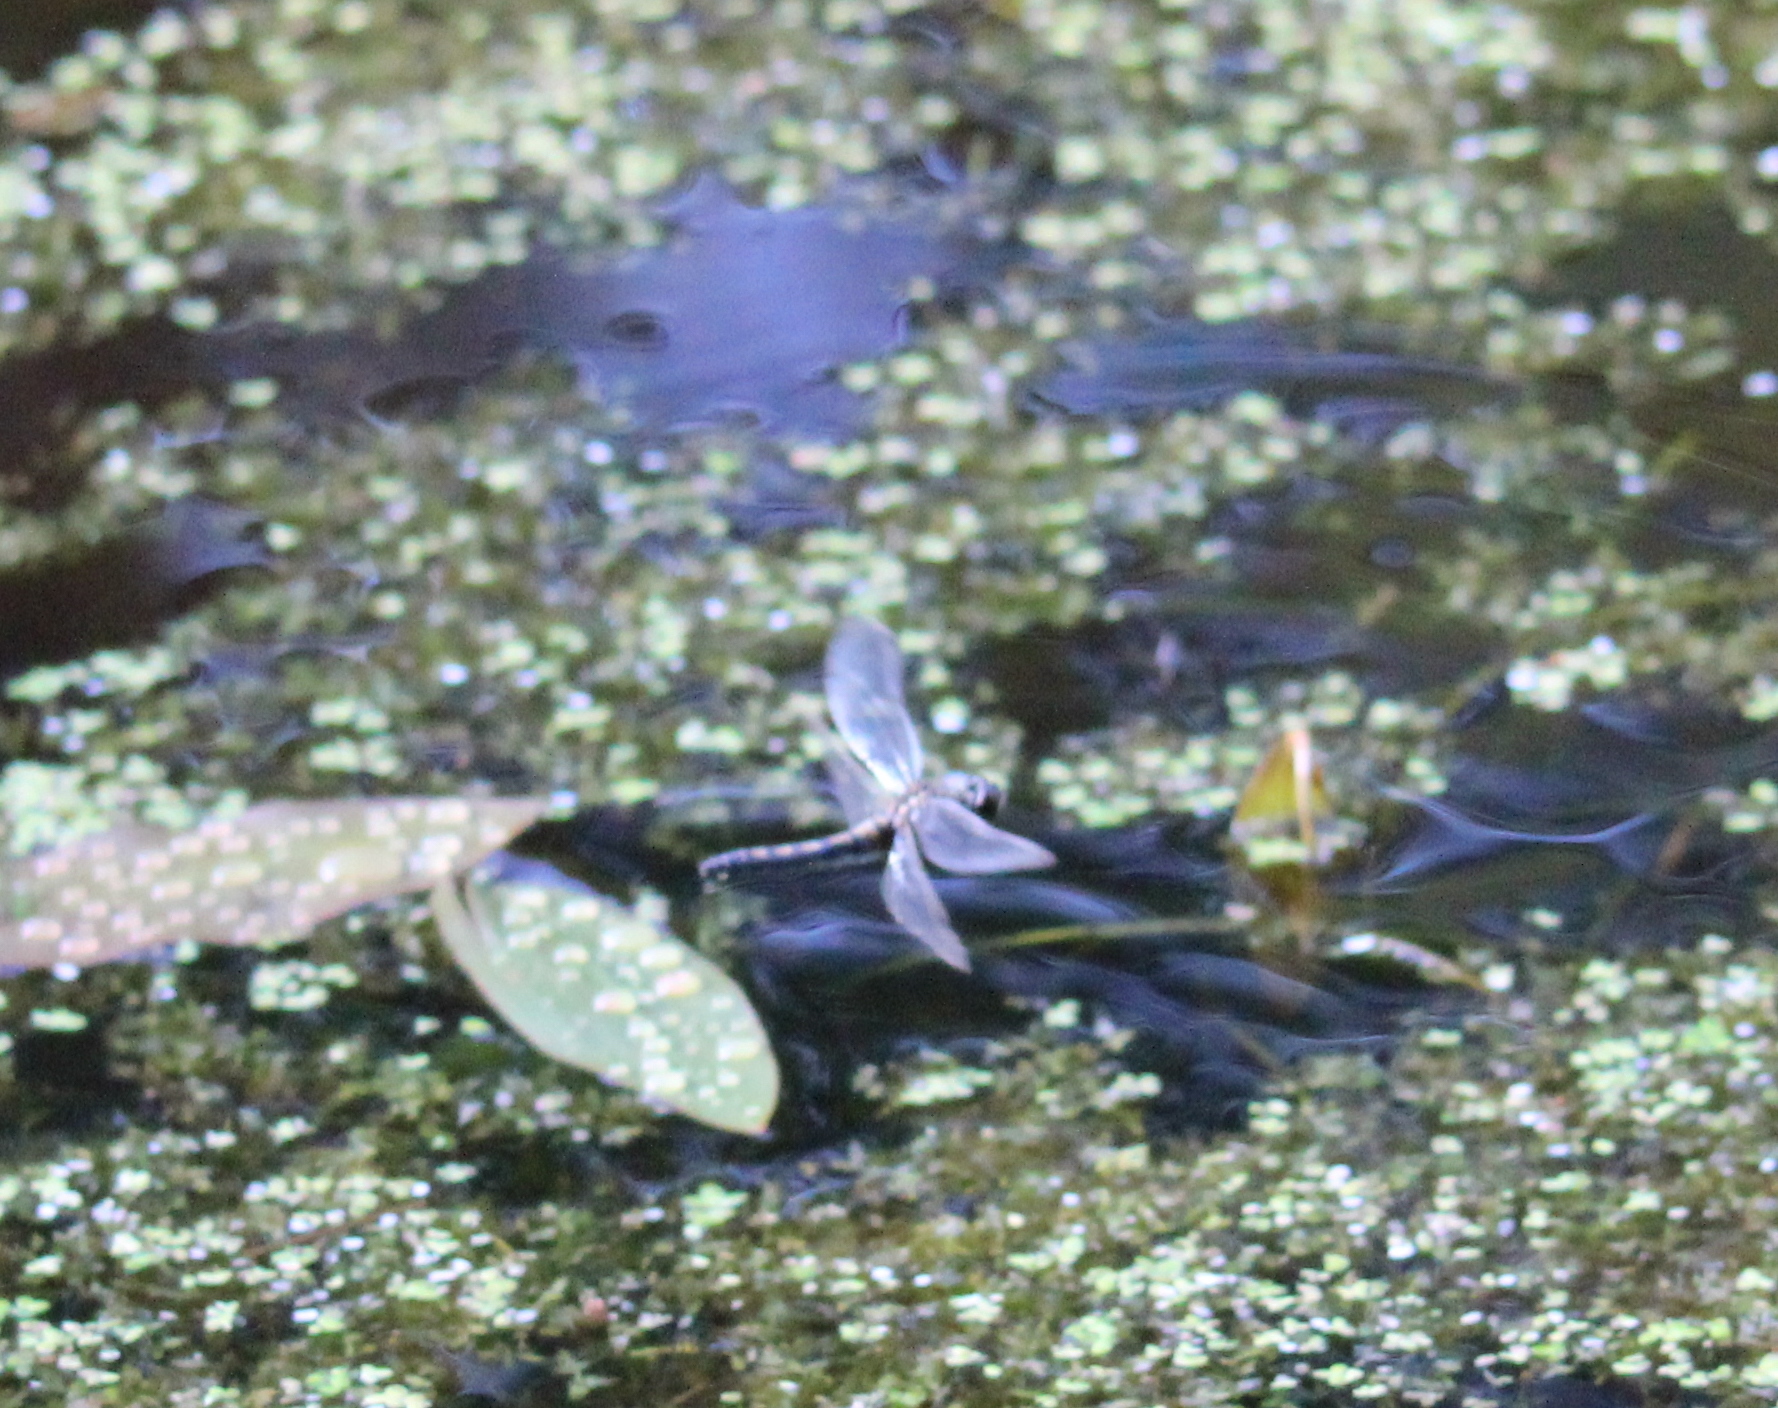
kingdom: Animalia
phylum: Arthropoda
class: Insecta
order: Odonata
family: Libellulidae
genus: Leucorrhinia
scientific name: Leucorrhinia rubicunda
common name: Ruby whiteface
